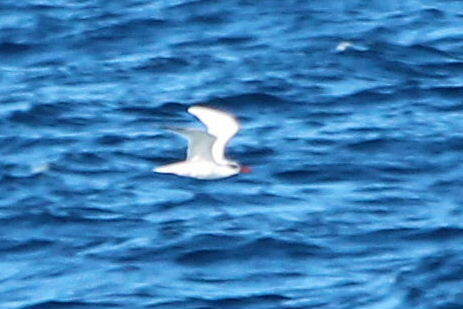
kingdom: Animalia
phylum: Chordata
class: Aves
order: Phaethontiformes
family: Phaethontidae
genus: Phaethon
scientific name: Phaethon rubricauda
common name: Red-tailed tropicbird
